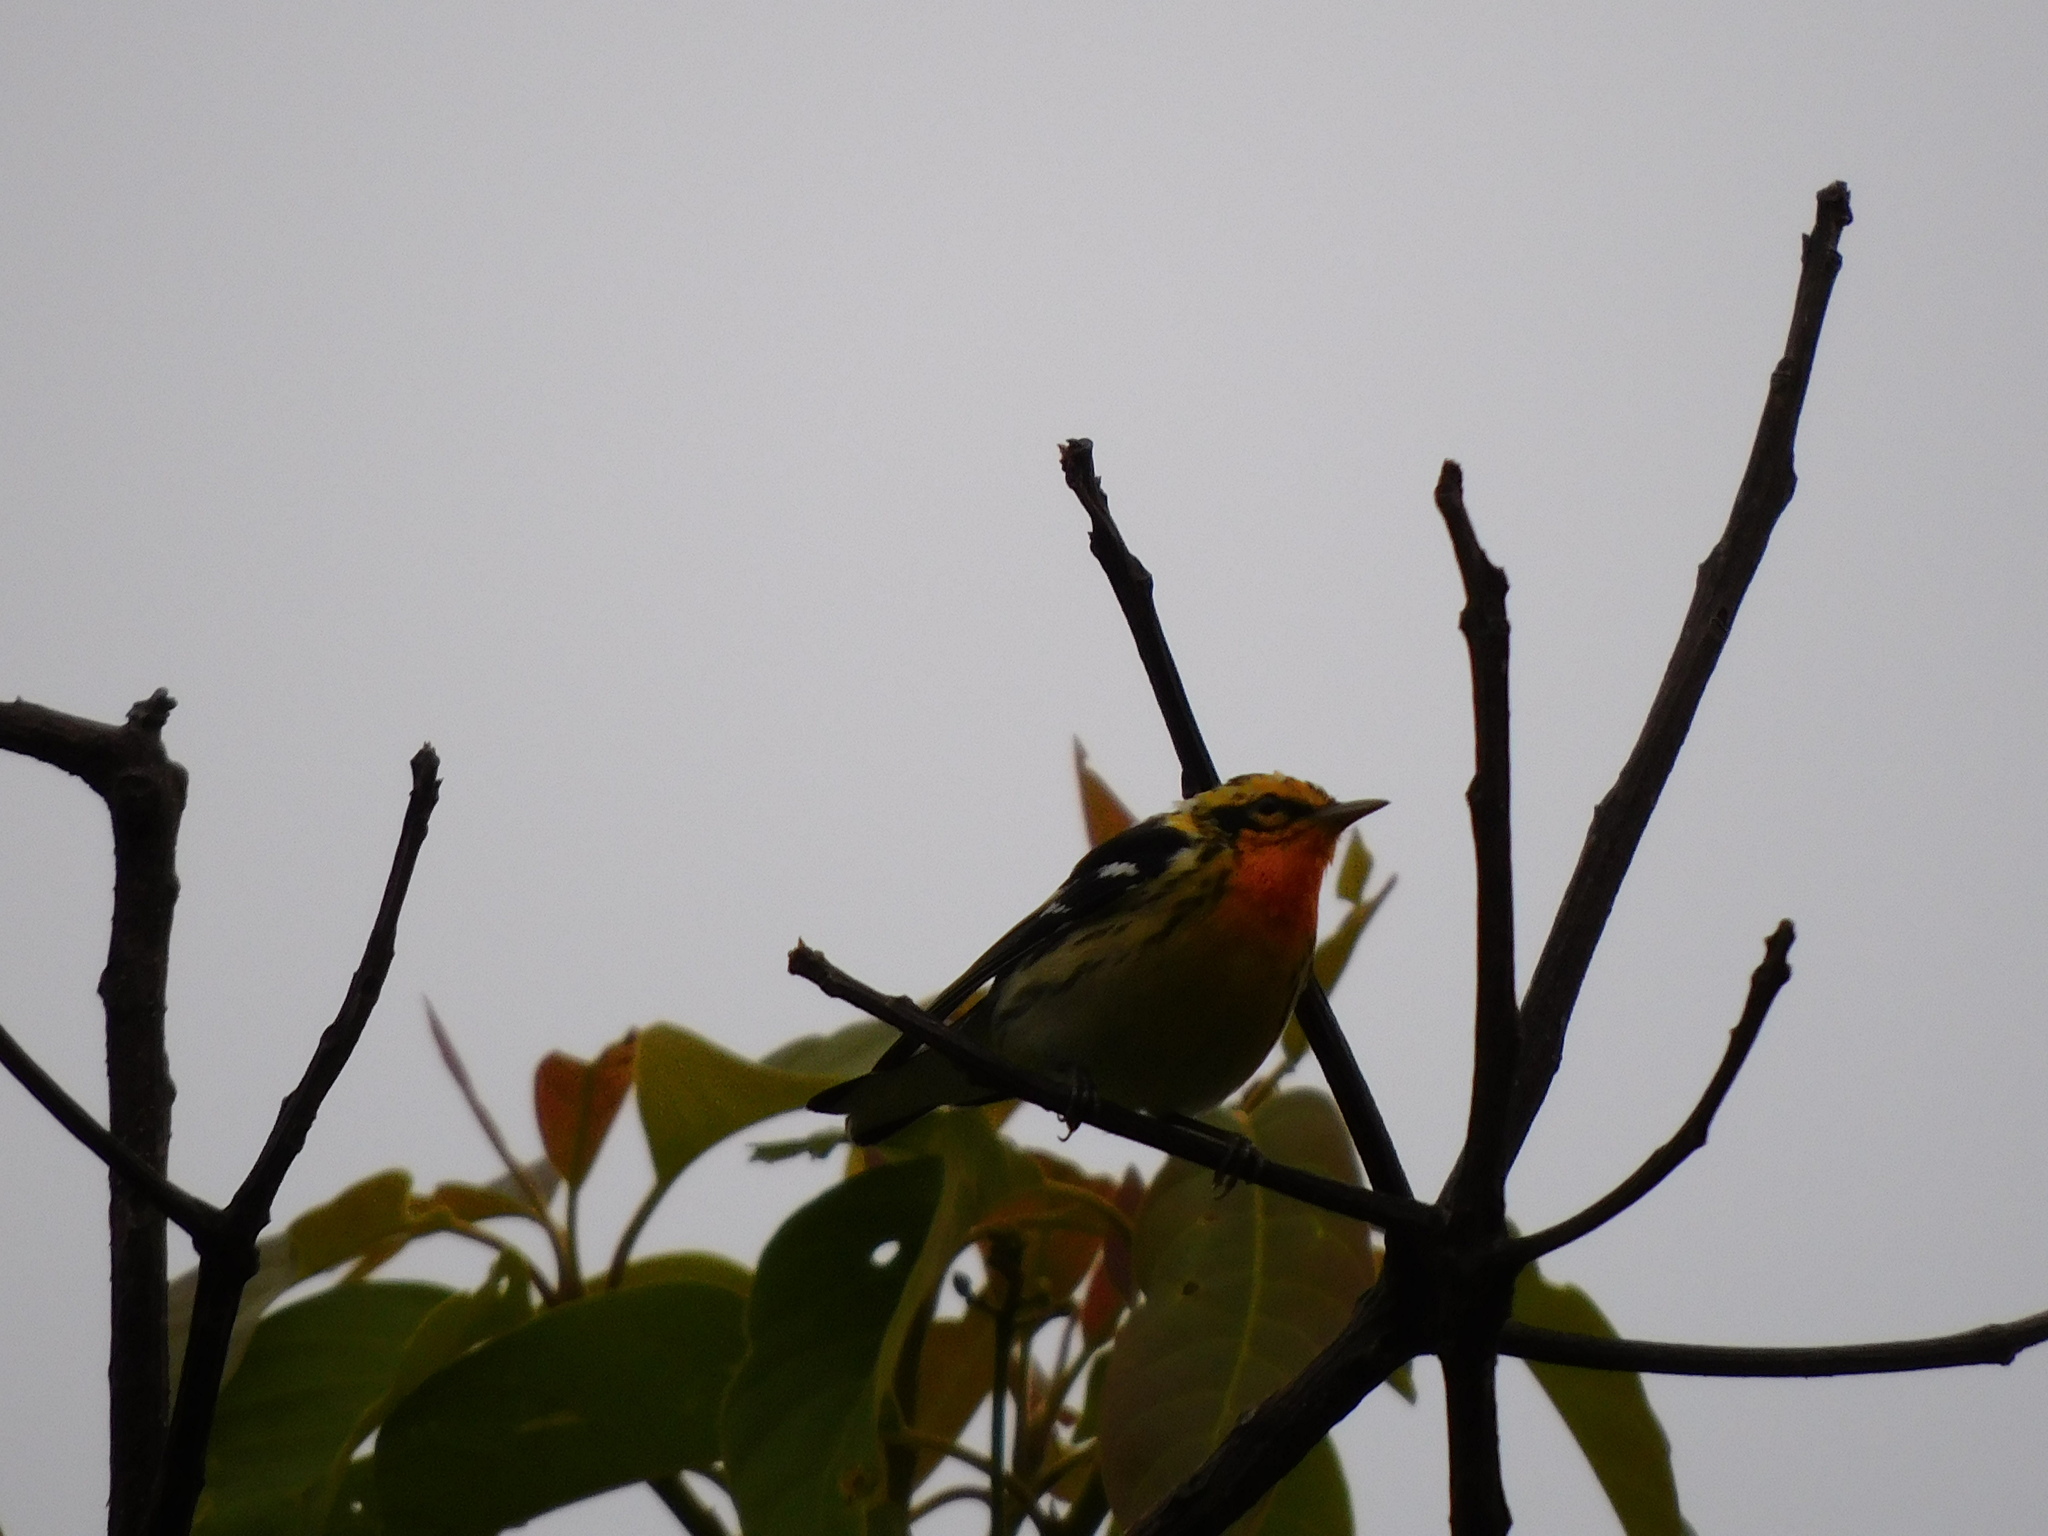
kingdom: Animalia
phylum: Chordata
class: Aves
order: Passeriformes
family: Parulidae
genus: Setophaga
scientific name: Setophaga fusca
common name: Blackburnian warbler
